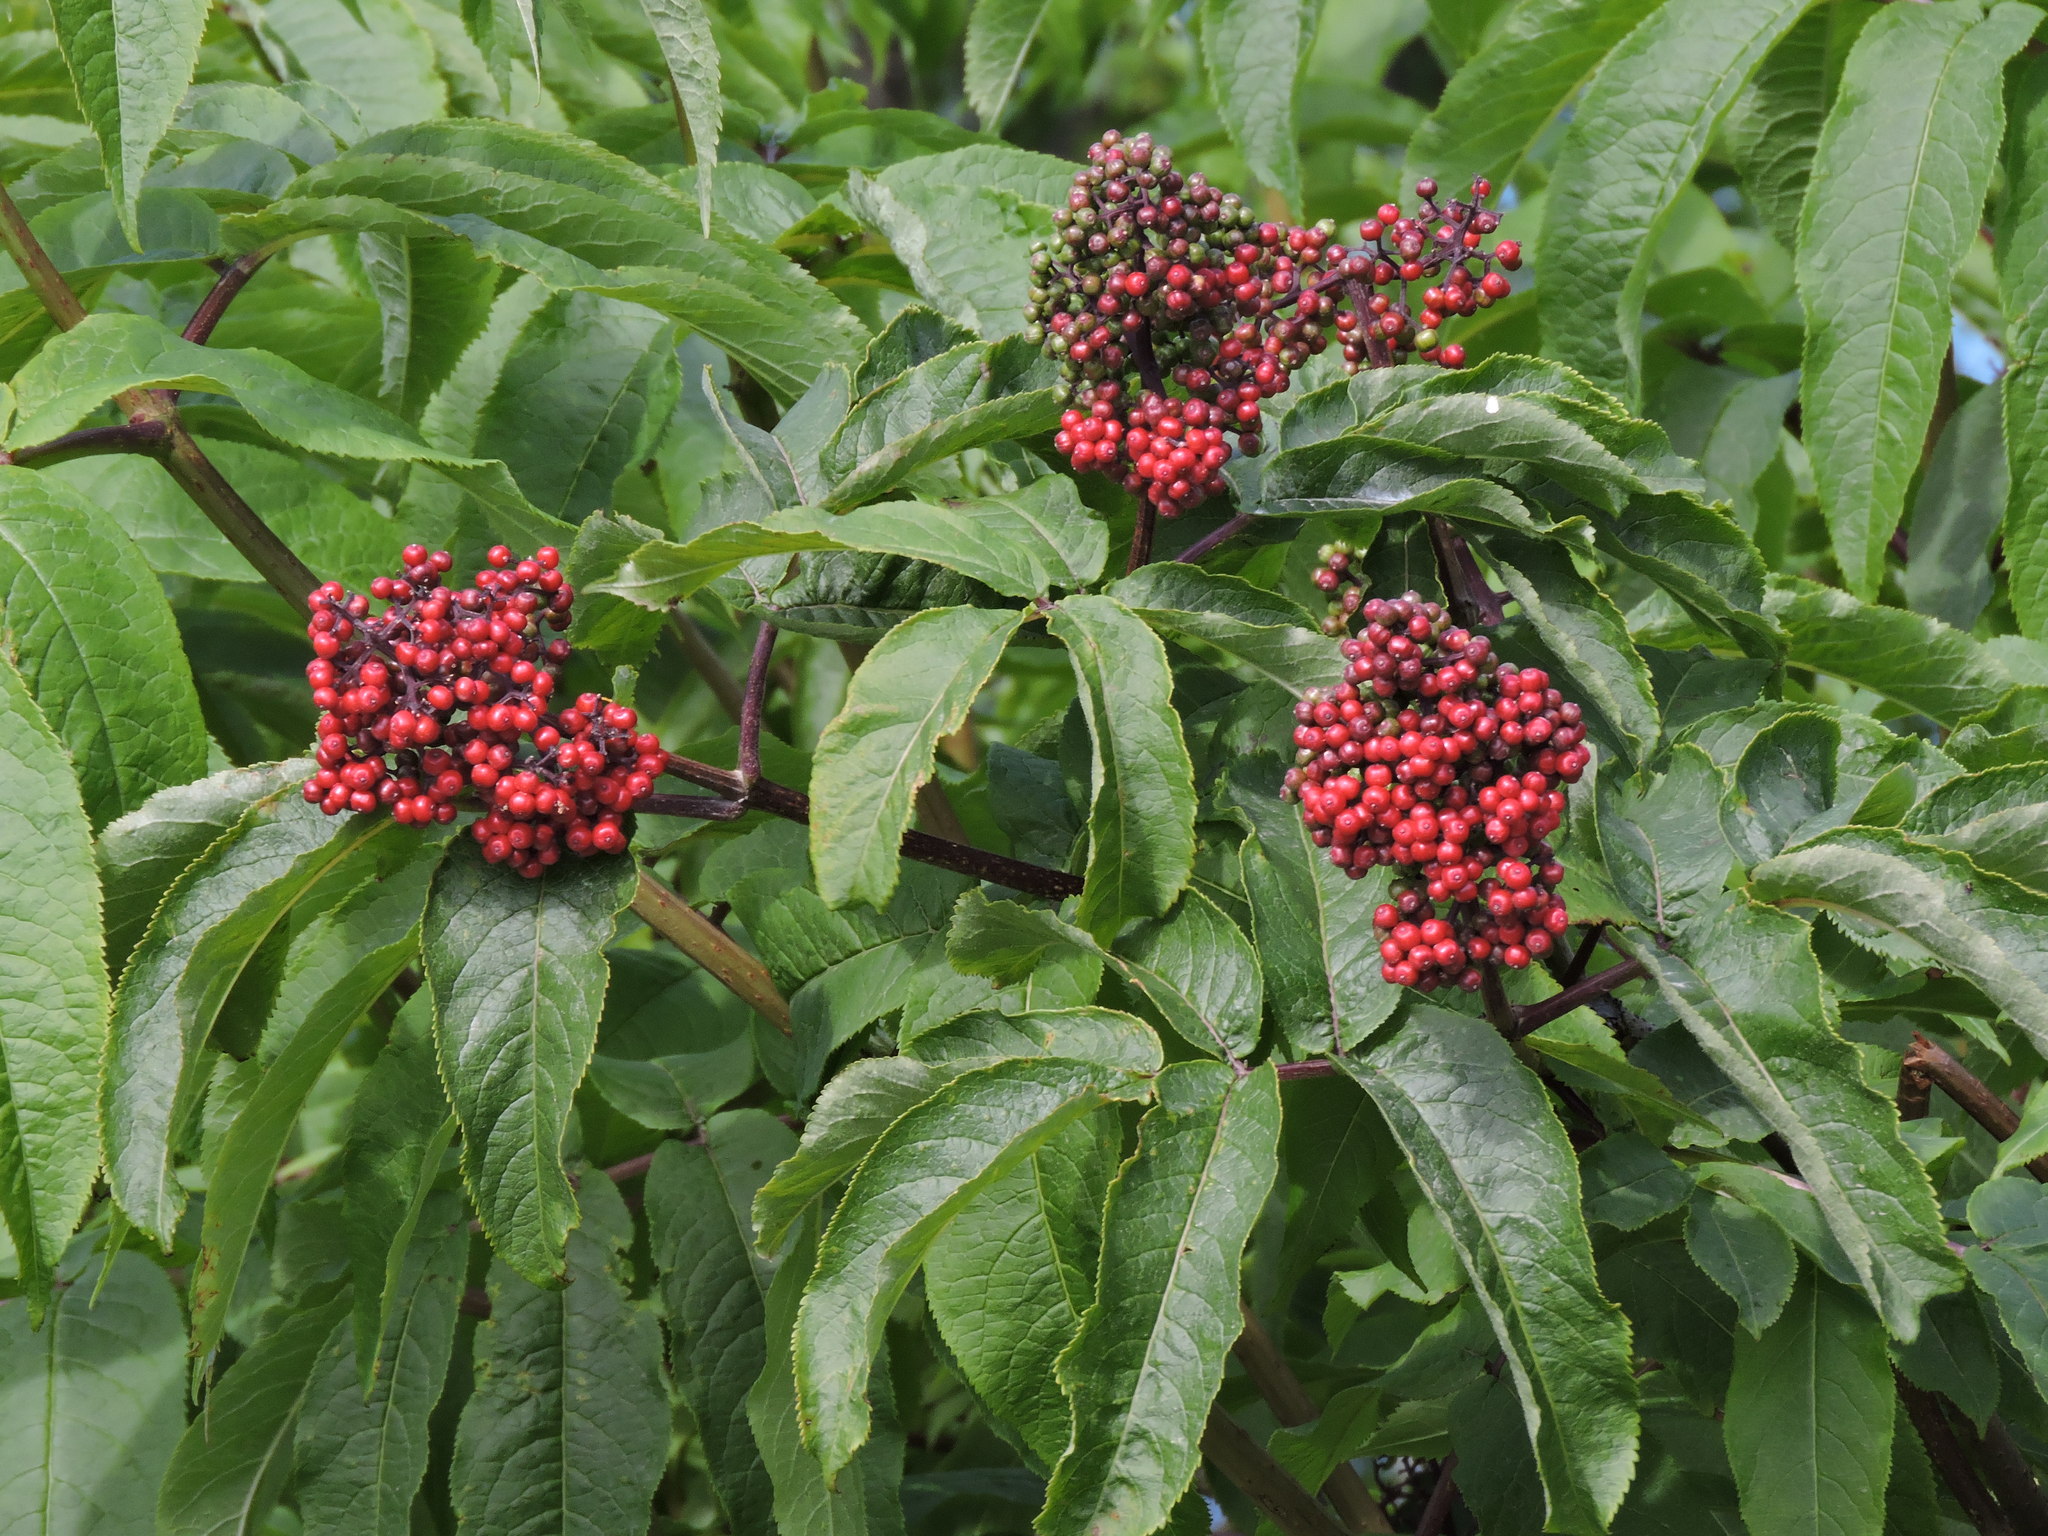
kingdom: Plantae
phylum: Tracheophyta
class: Magnoliopsida
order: Dipsacales
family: Viburnaceae
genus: Sambucus
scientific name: Sambucus racemosa
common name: Red-berried elder
